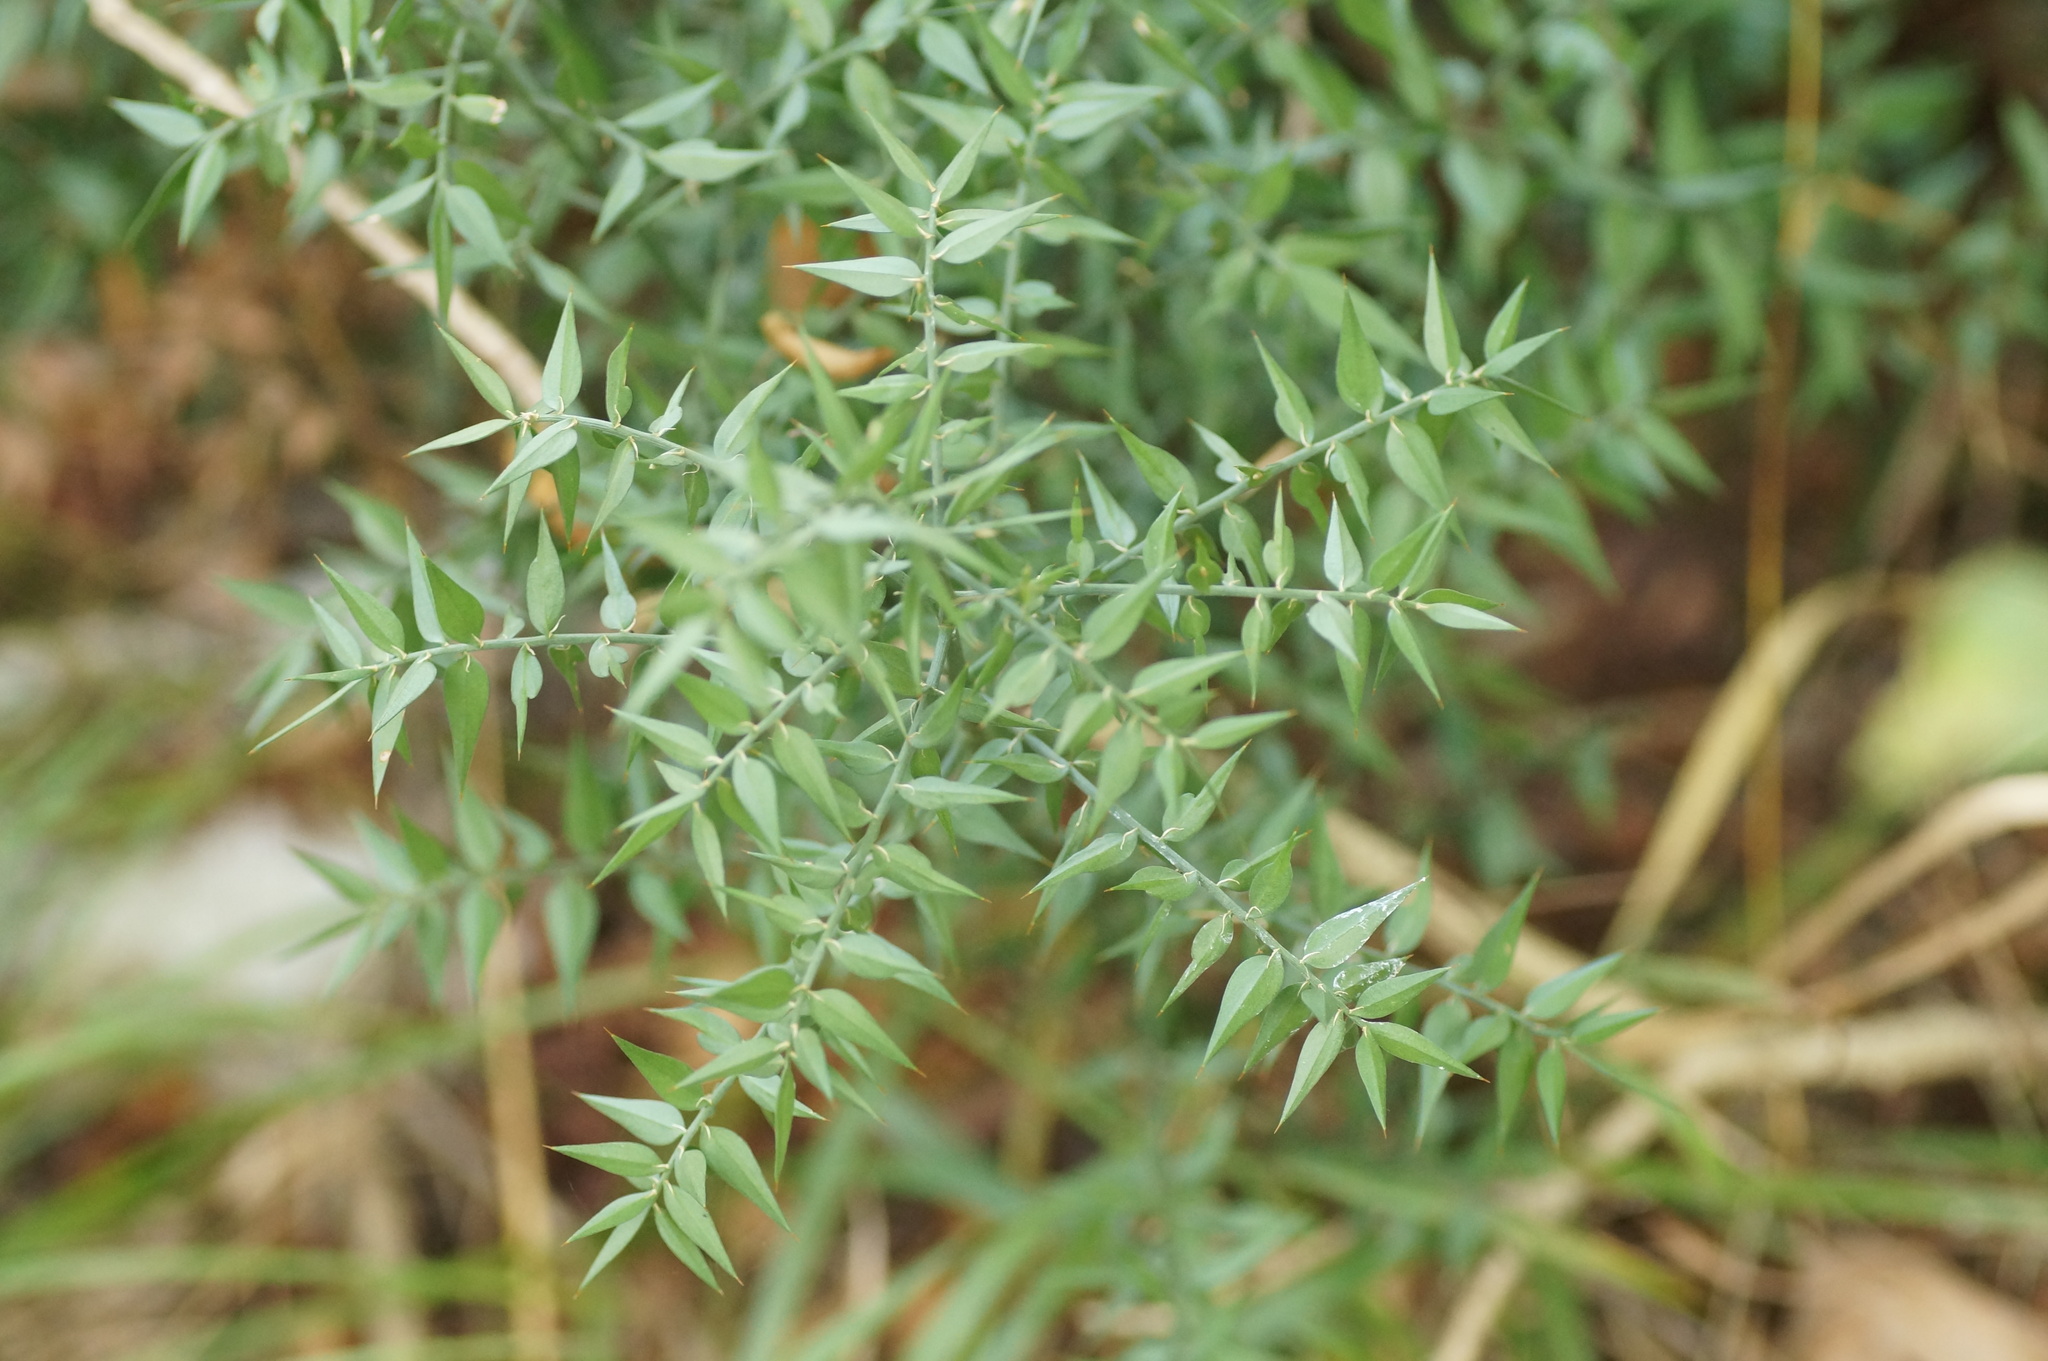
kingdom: Plantae
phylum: Tracheophyta
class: Liliopsida
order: Asparagales
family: Asparagaceae
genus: Ruscus
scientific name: Ruscus aculeatus
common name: Butcher's-broom
